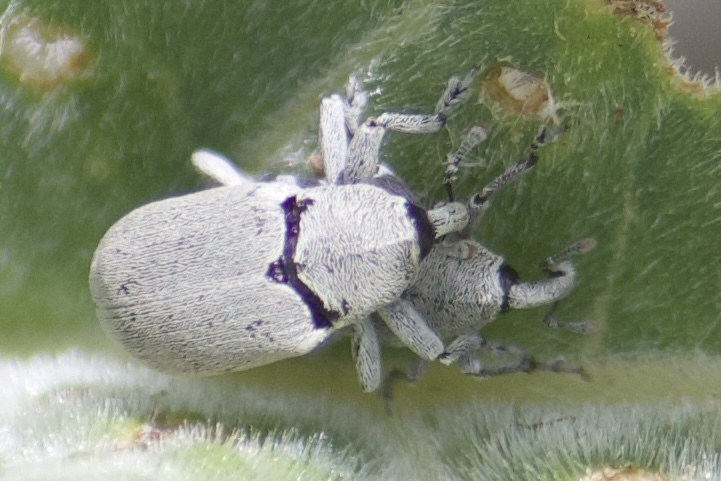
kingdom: Animalia
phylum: Arthropoda
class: Insecta
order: Coleoptera
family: Curculionidae
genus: Trichobaris
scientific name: Trichobaris compacta
